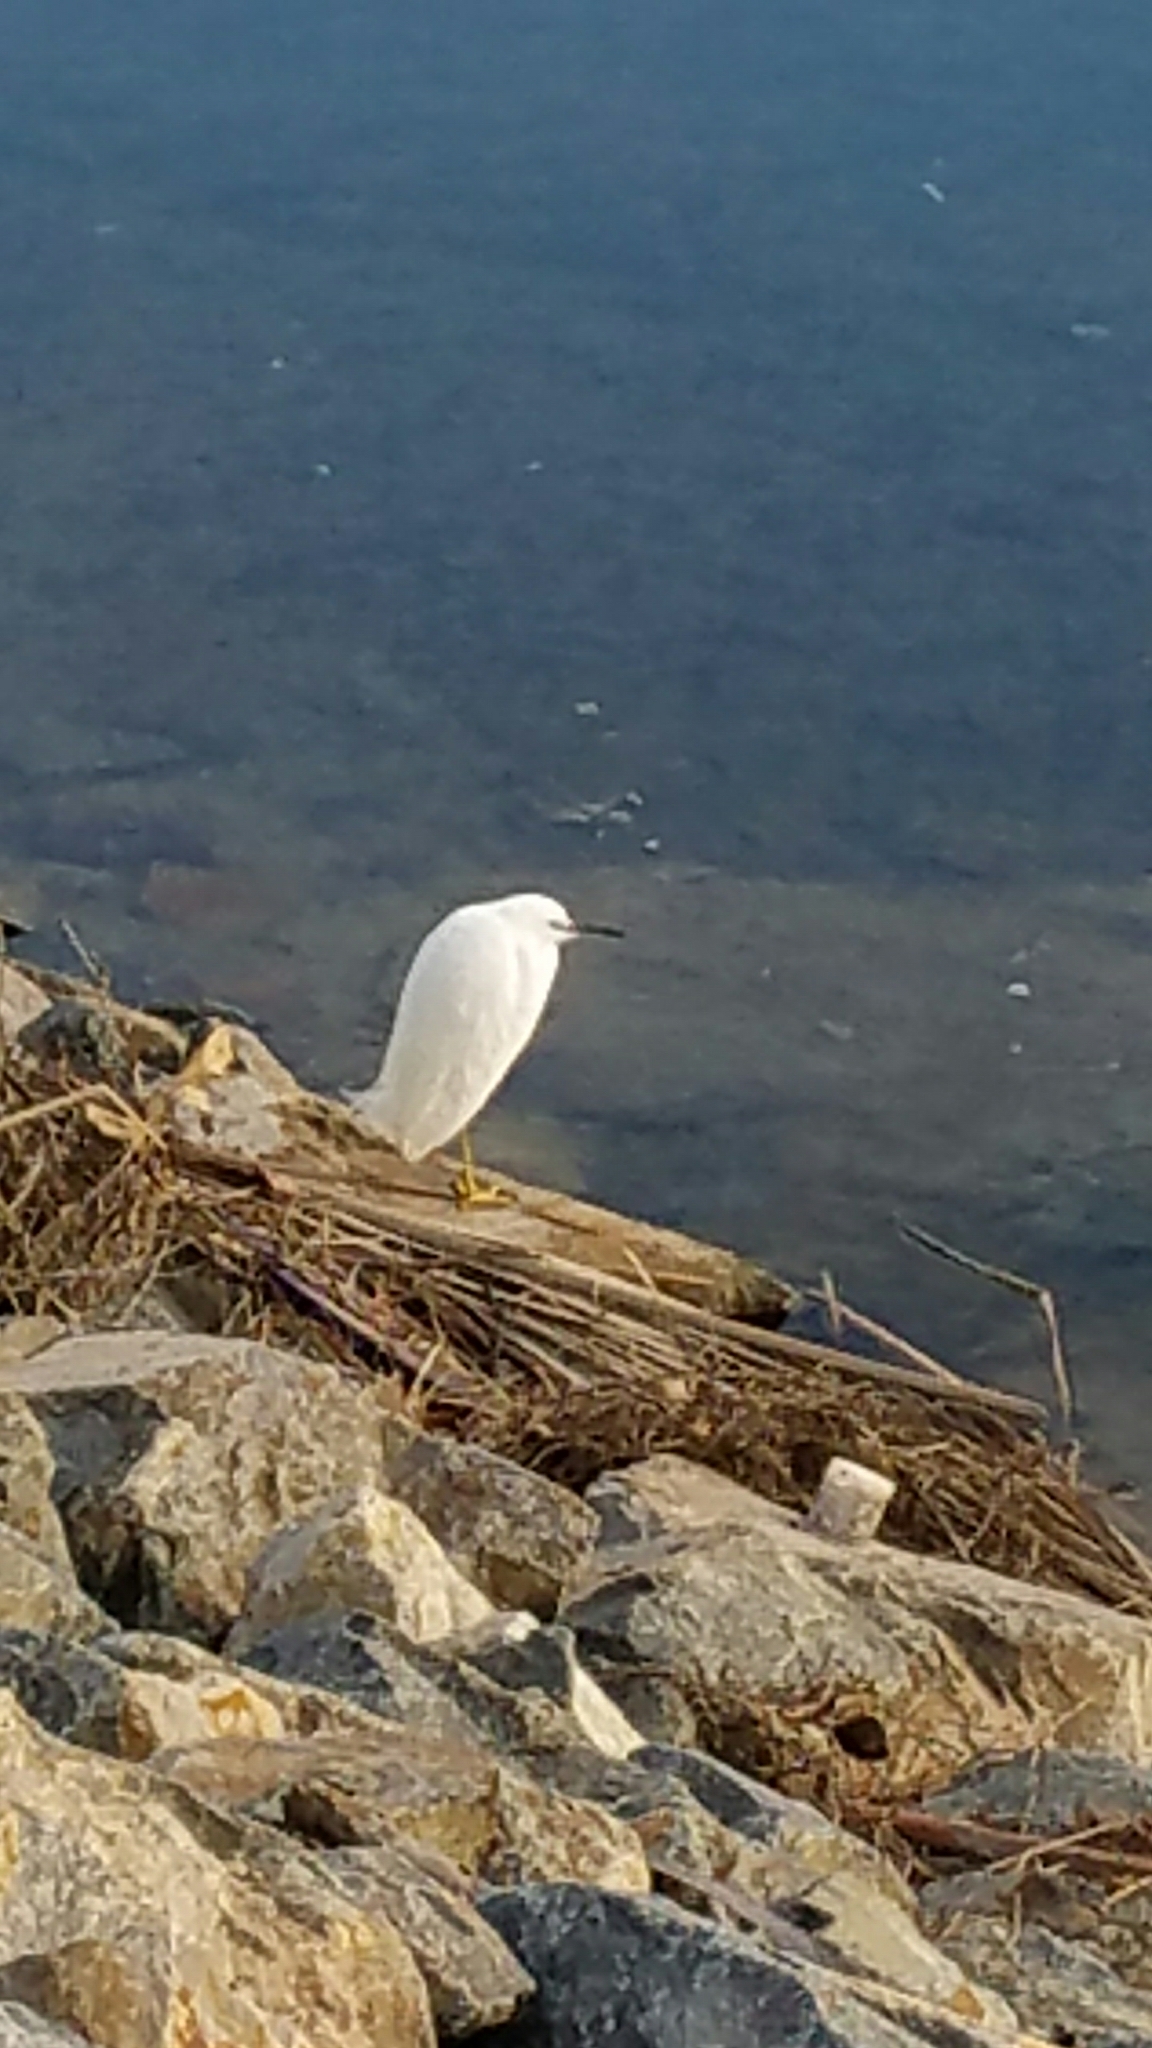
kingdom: Animalia
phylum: Chordata
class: Aves
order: Pelecaniformes
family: Ardeidae
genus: Egretta
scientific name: Egretta thula
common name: Snowy egret
